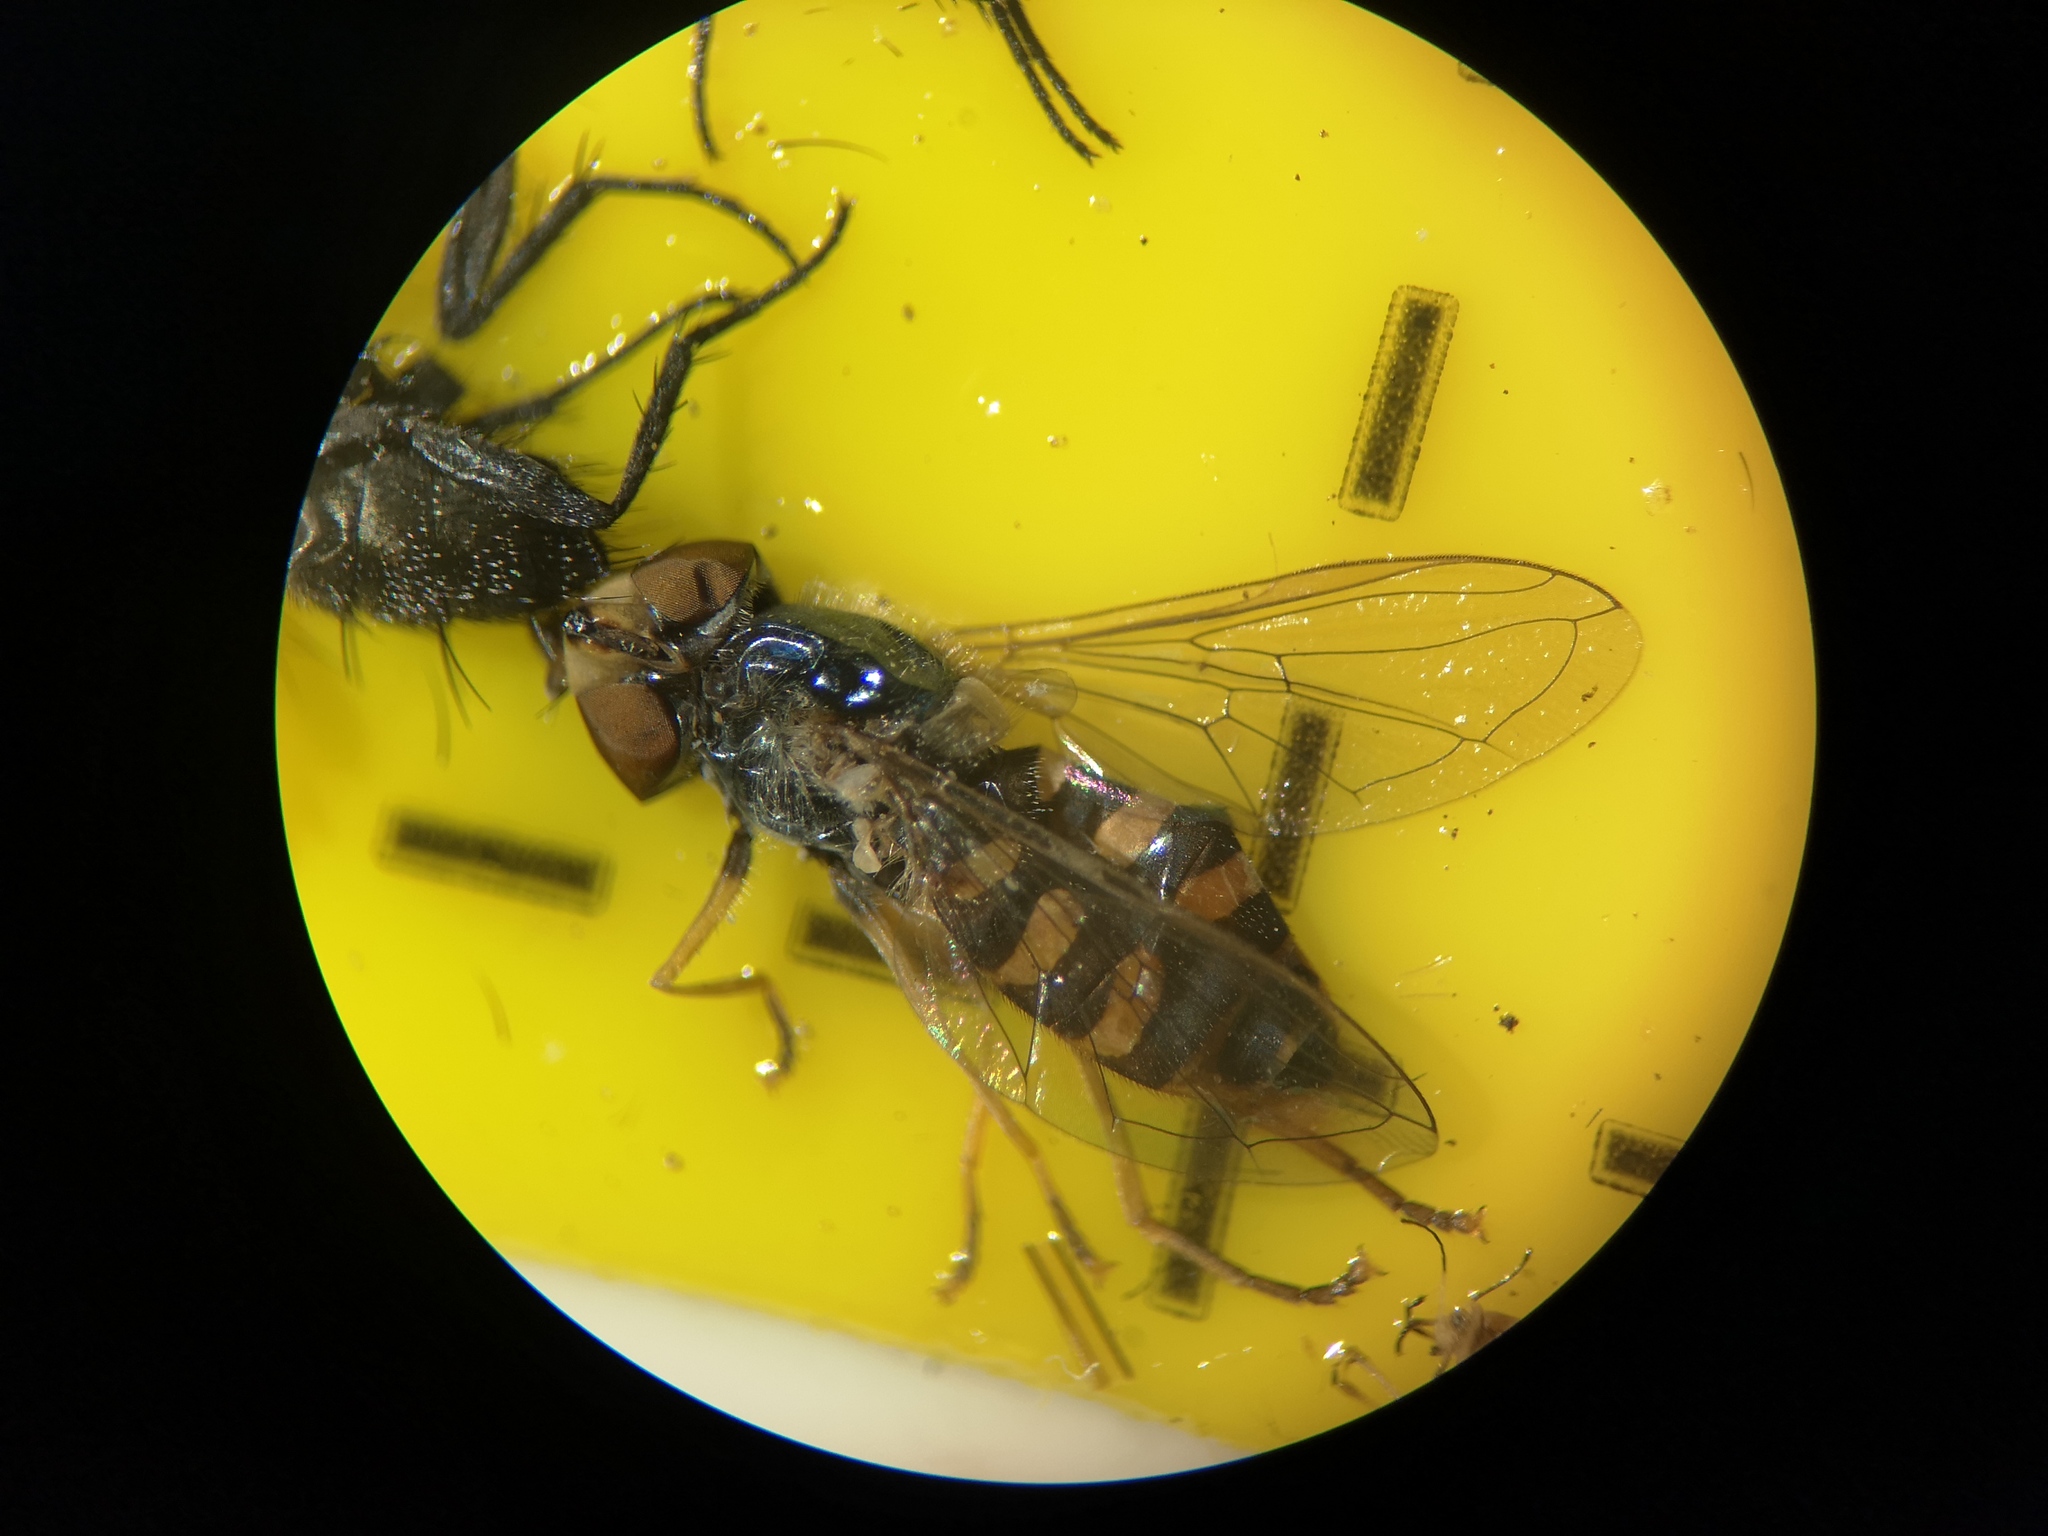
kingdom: Animalia
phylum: Arthropoda
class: Insecta
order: Diptera
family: Syrphidae
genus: Eupeodes
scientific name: Eupeodes corollae
